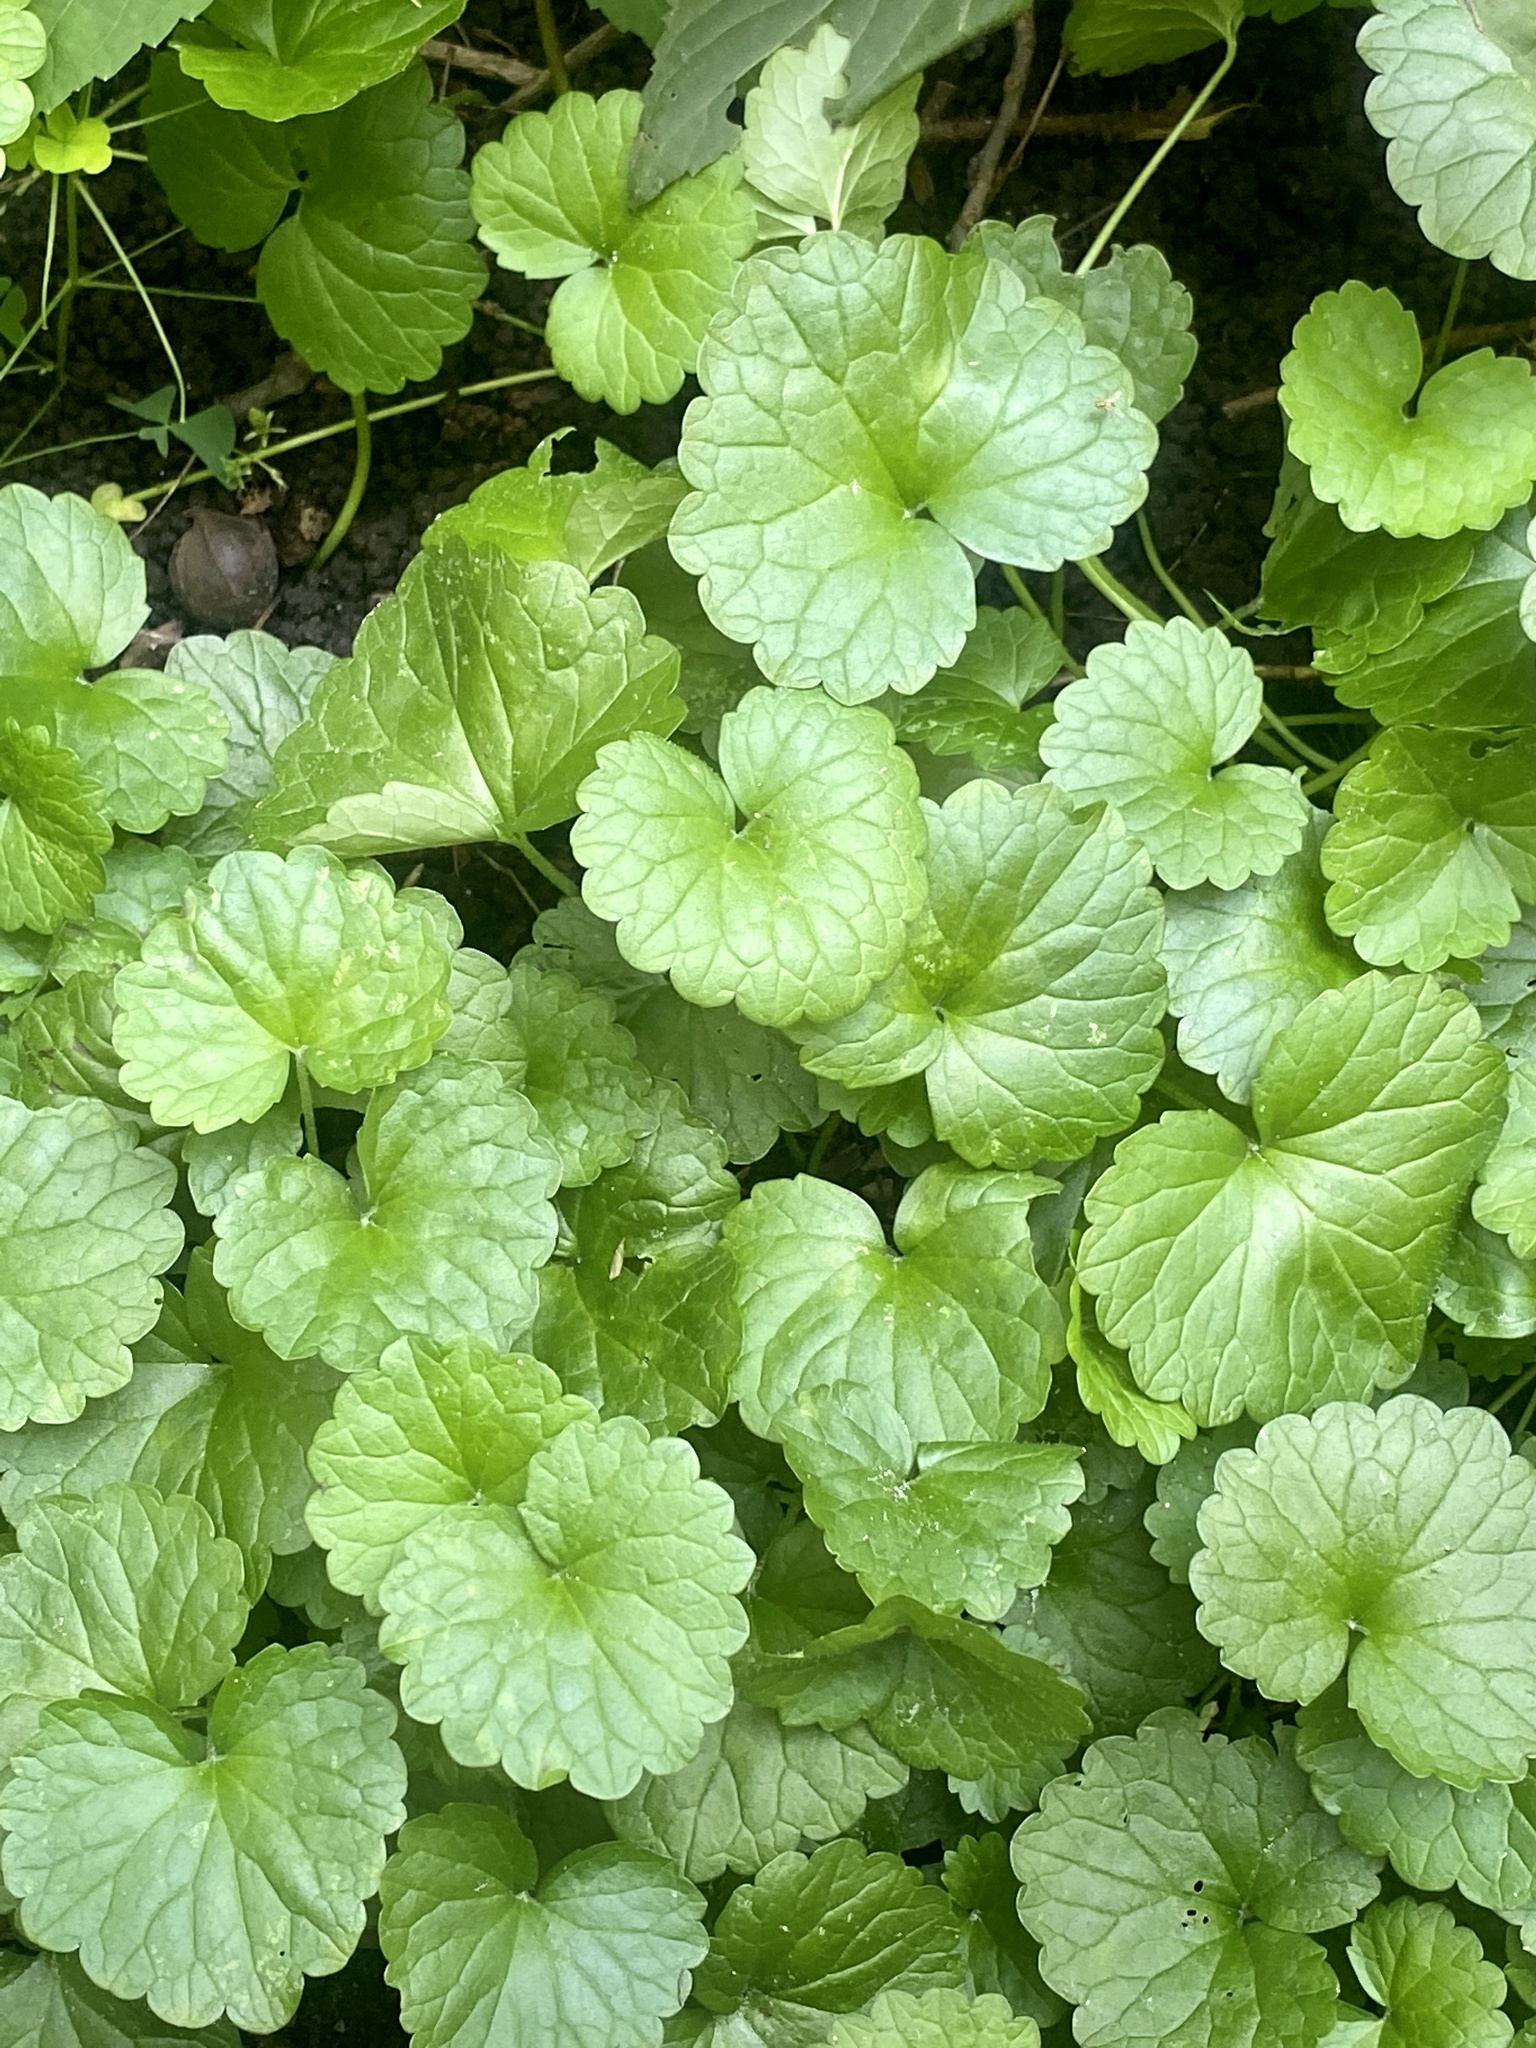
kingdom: Plantae
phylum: Tracheophyta
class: Magnoliopsida
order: Lamiales
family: Lamiaceae
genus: Glechoma
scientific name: Glechoma hederacea
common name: Ground ivy
